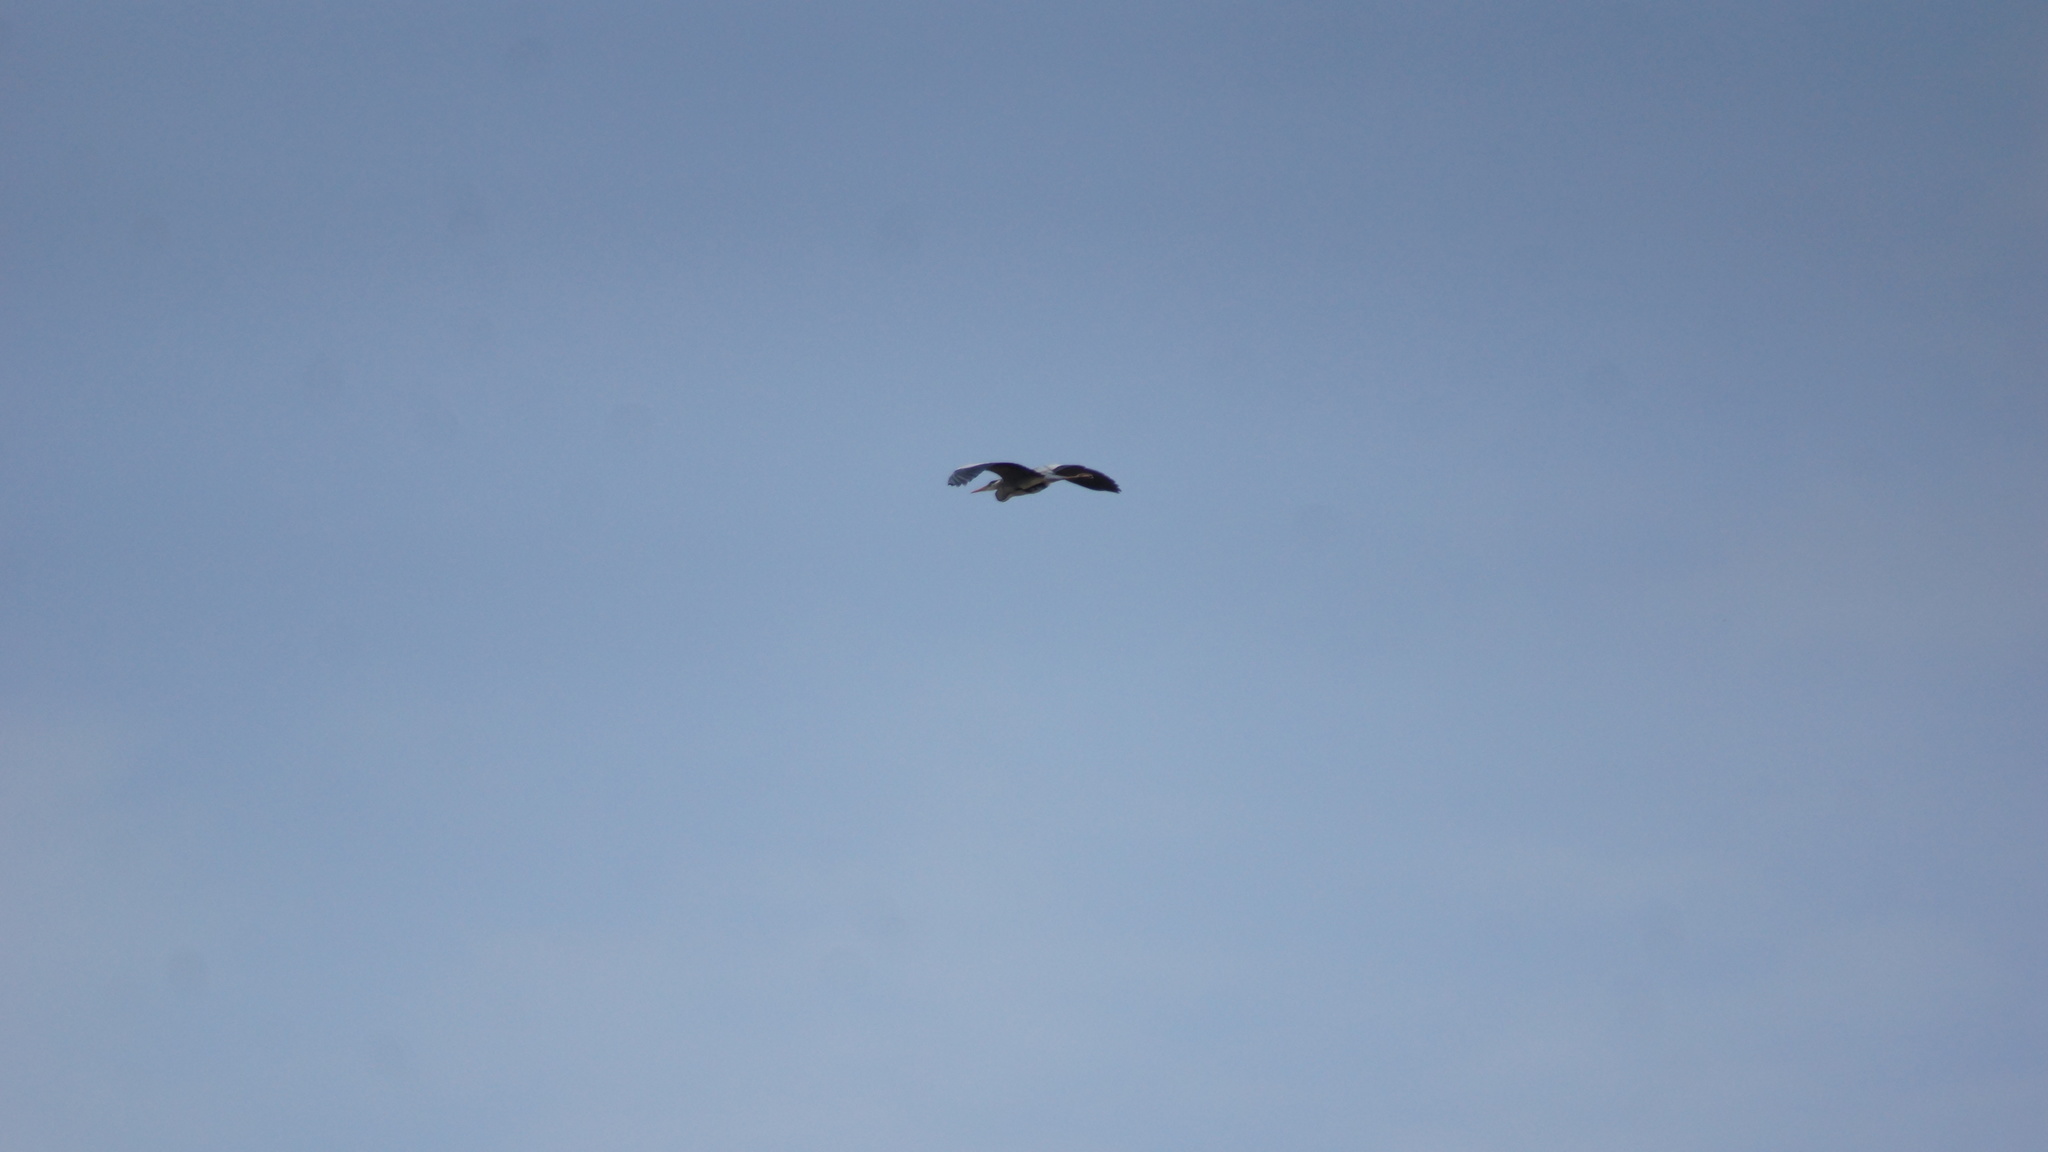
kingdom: Animalia
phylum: Chordata
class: Aves
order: Pelecaniformes
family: Ardeidae
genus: Ardea
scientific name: Ardea cinerea
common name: Grey heron
